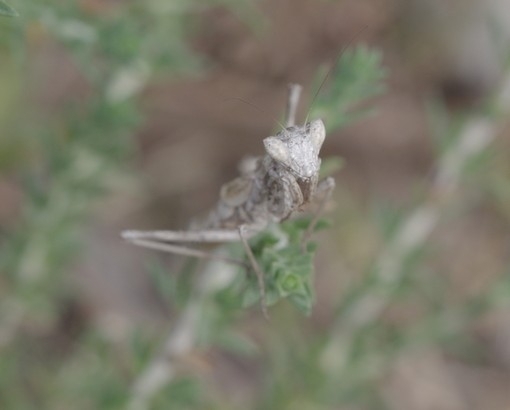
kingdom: Animalia
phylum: Arthropoda
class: Insecta
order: Mantodea
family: Amelidae
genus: Ameles
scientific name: Ameles heldreichi
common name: Heldreich's dwarf mantis
